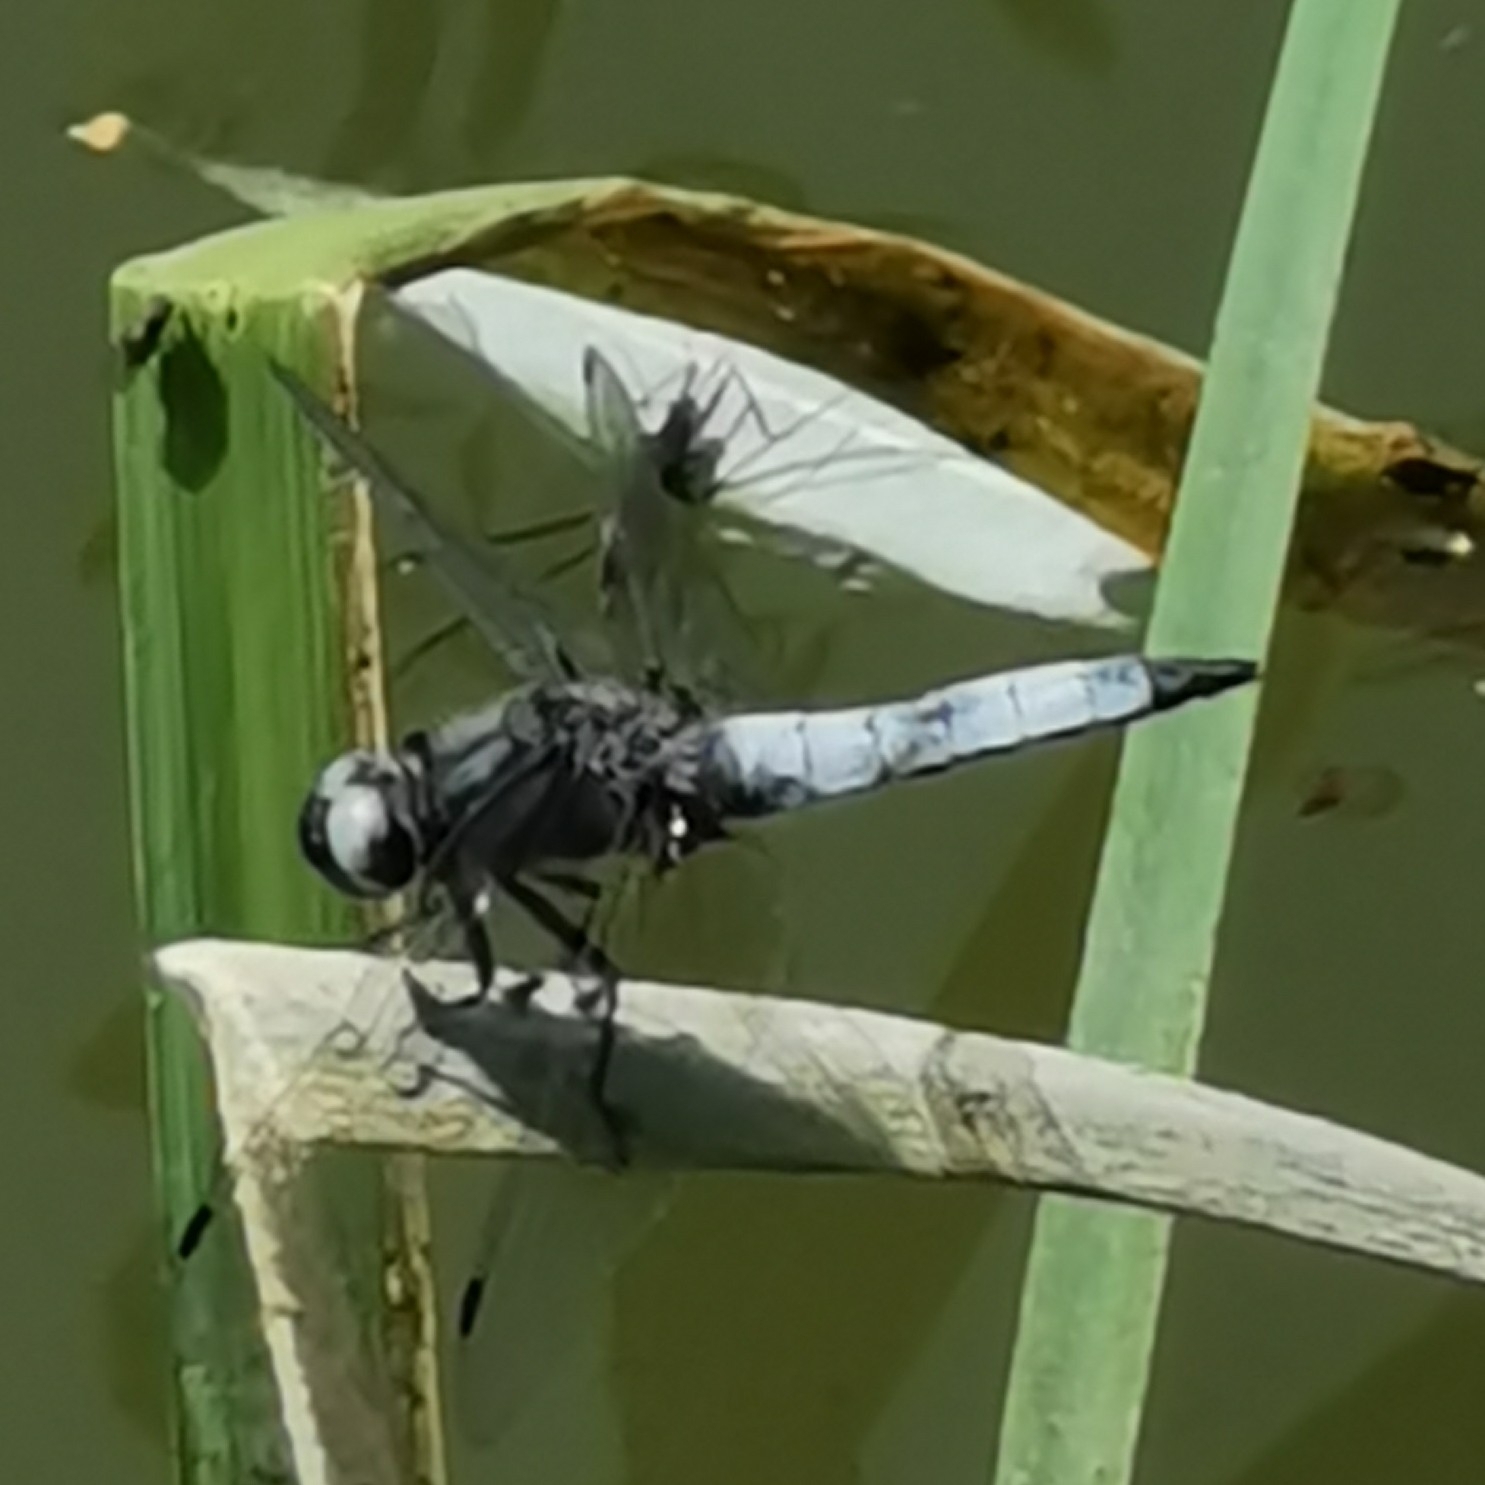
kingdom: Animalia
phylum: Arthropoda
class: Insecta
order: Odonata
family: Libellulidae
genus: Libellula
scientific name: Libellula fulva
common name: Blue chaser
